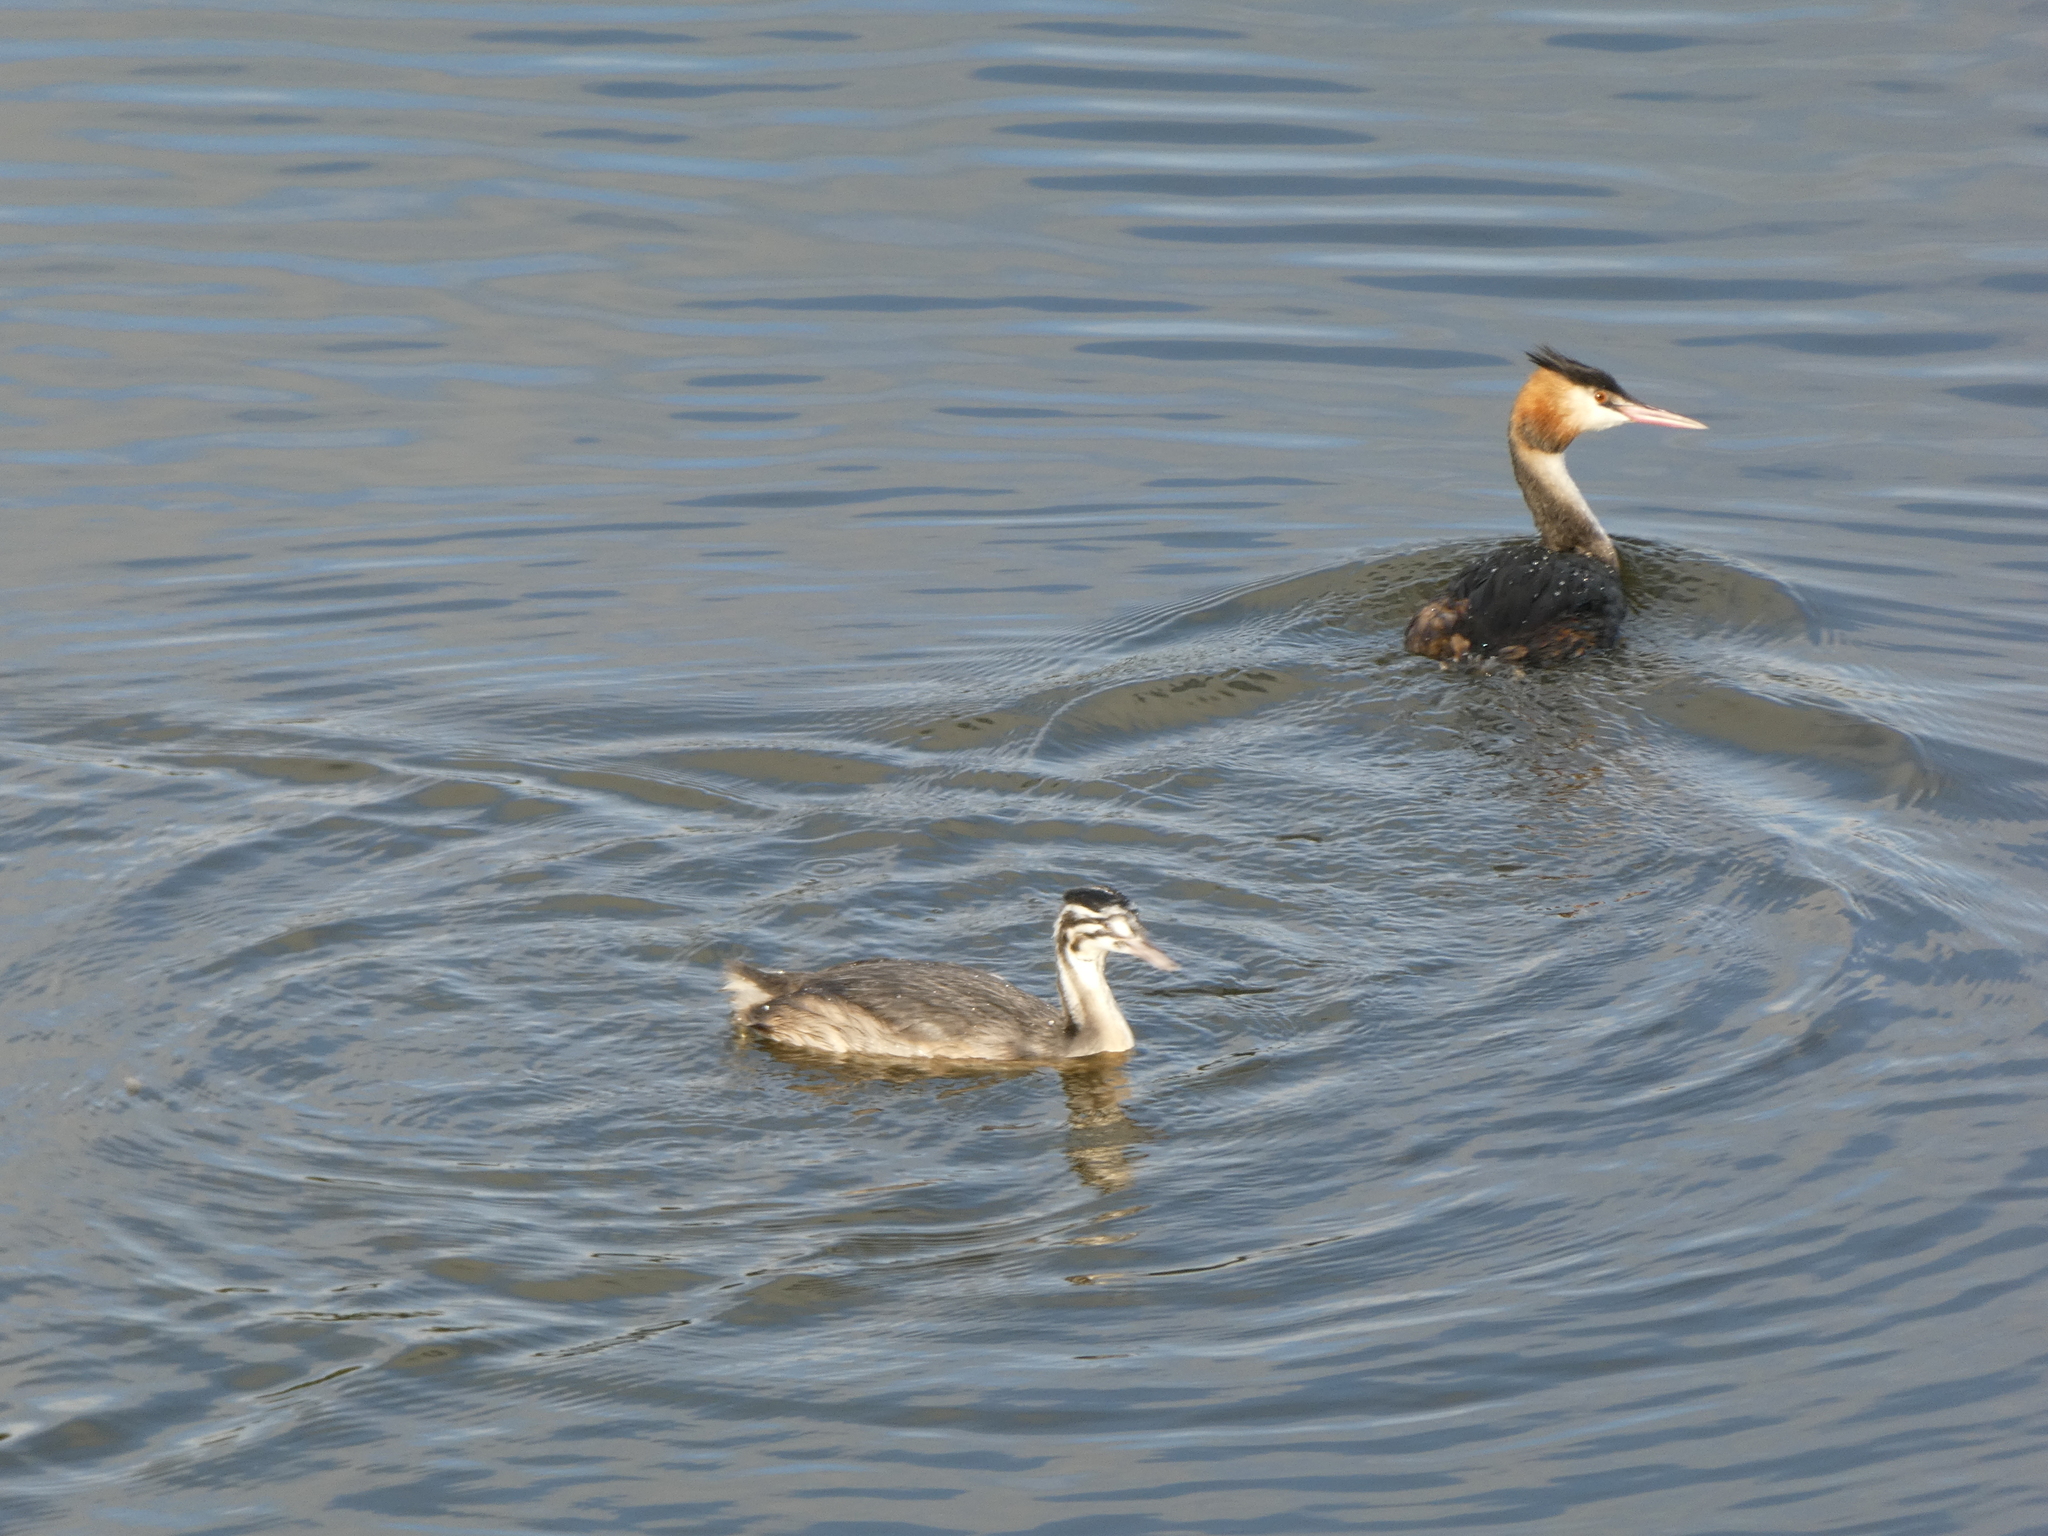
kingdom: Animalia
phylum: Chordata
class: Aves
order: Podicipediformes
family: Podicipedidae
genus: Podiceps
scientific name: Podiceps cristatus
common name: Great crested grebe
